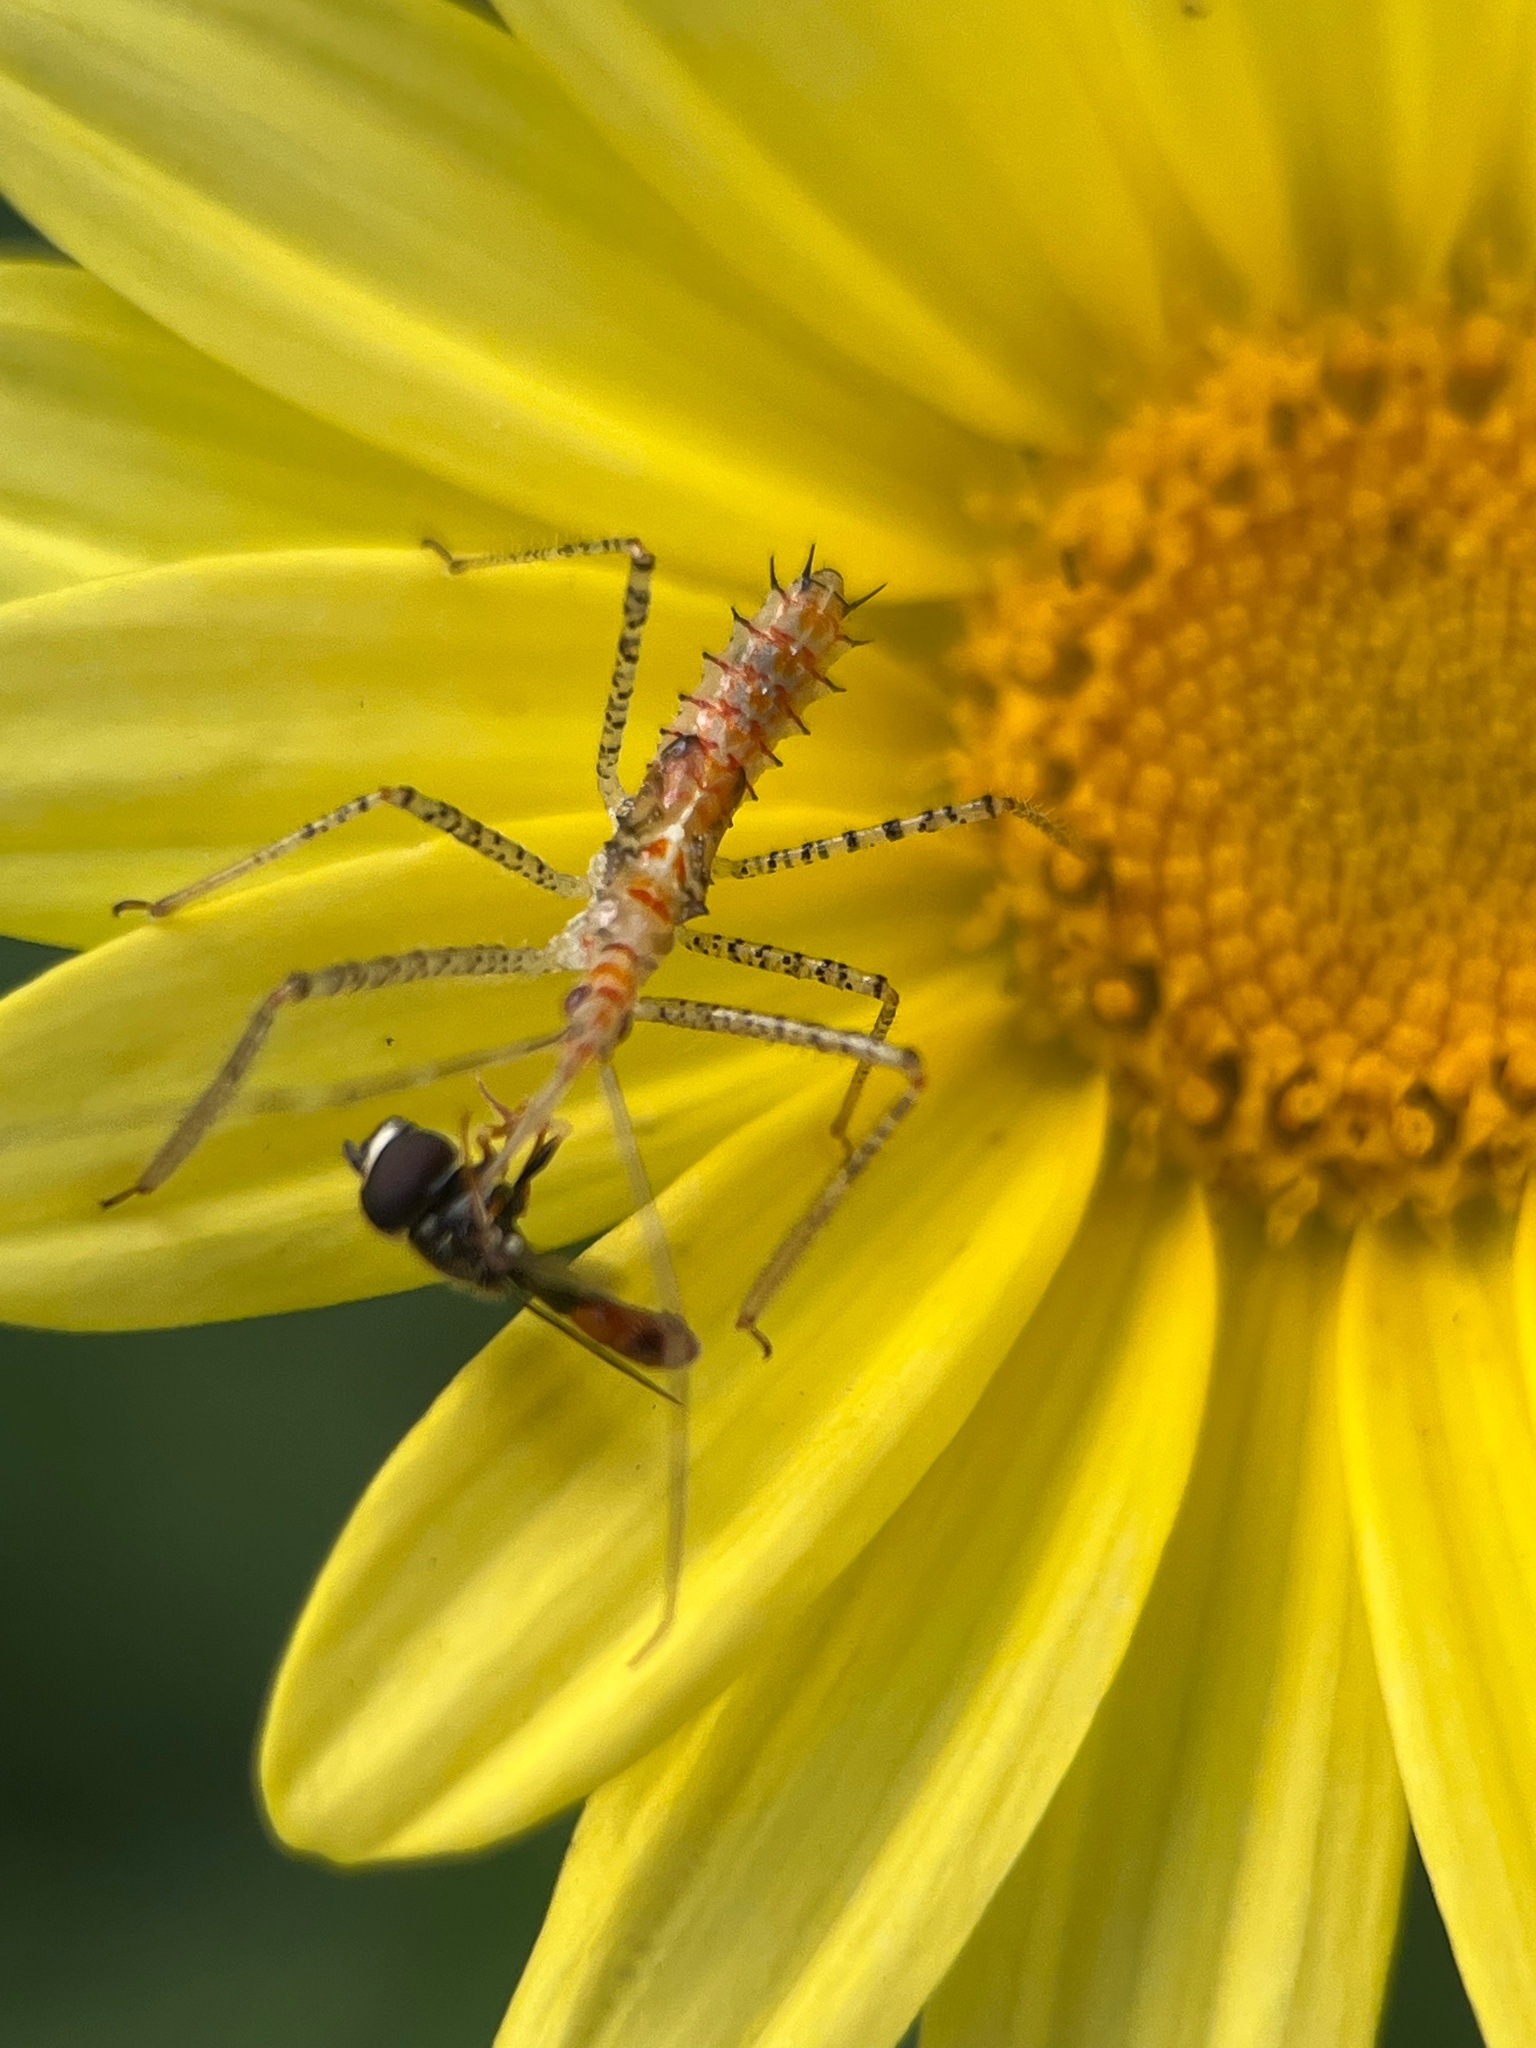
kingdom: Animalia
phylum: Arthropoda
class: Insecta
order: Hemiptera
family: Reduviidae
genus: Zelus
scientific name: Zelus renardii
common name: Assassin bug
